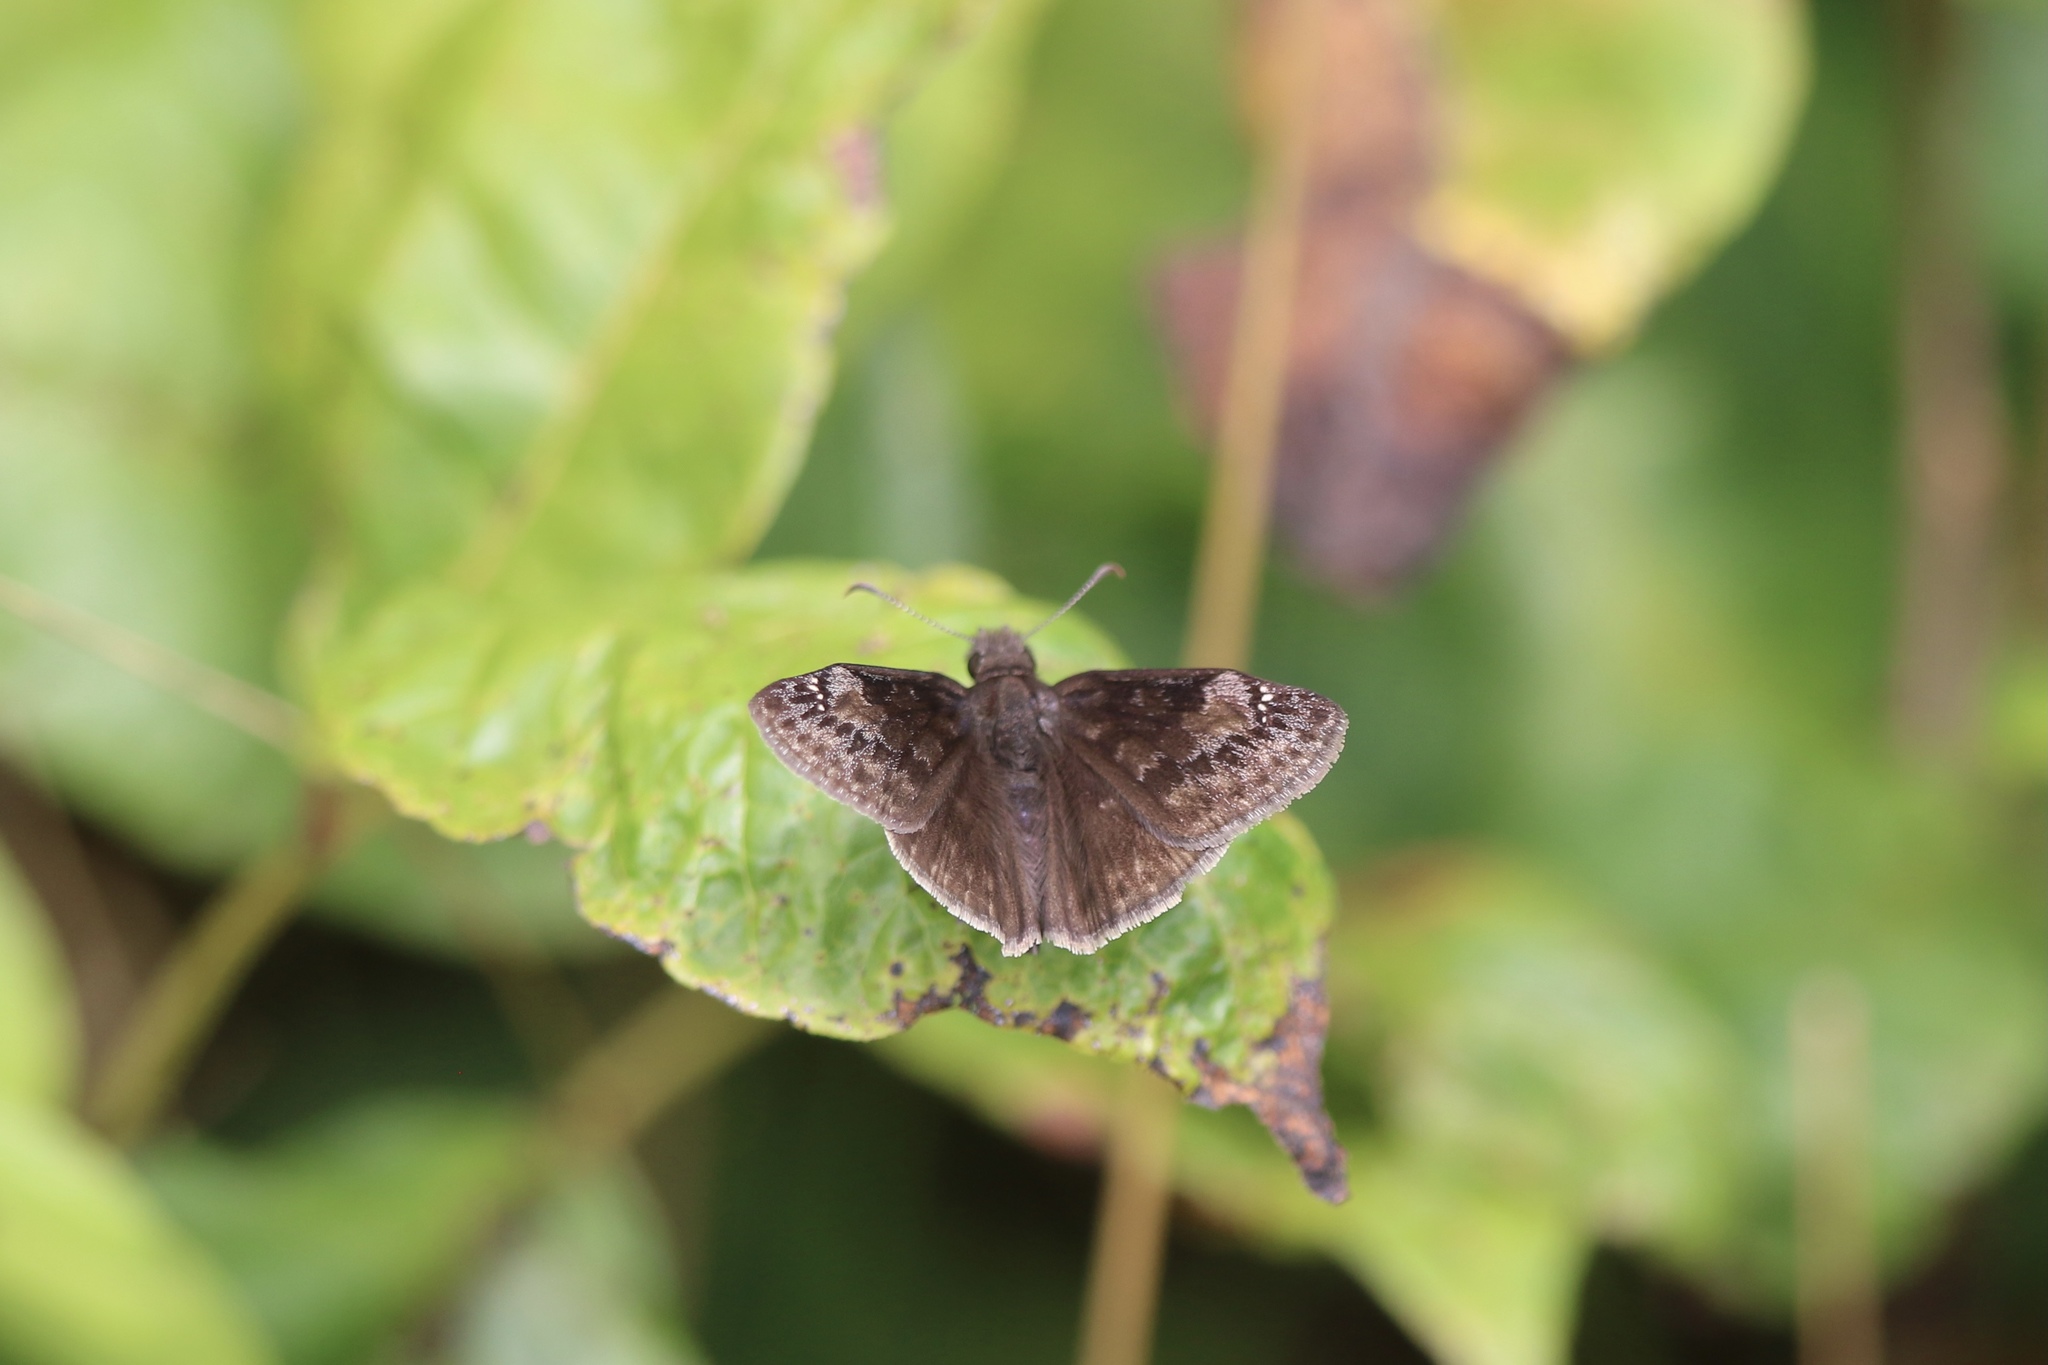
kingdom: Animalia
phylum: Arthropoda
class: Insecta
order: Lepidoptera
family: Hesperiidae
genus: Erynnis
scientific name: Erynnis baptisiae
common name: Wild indigo duskywing
